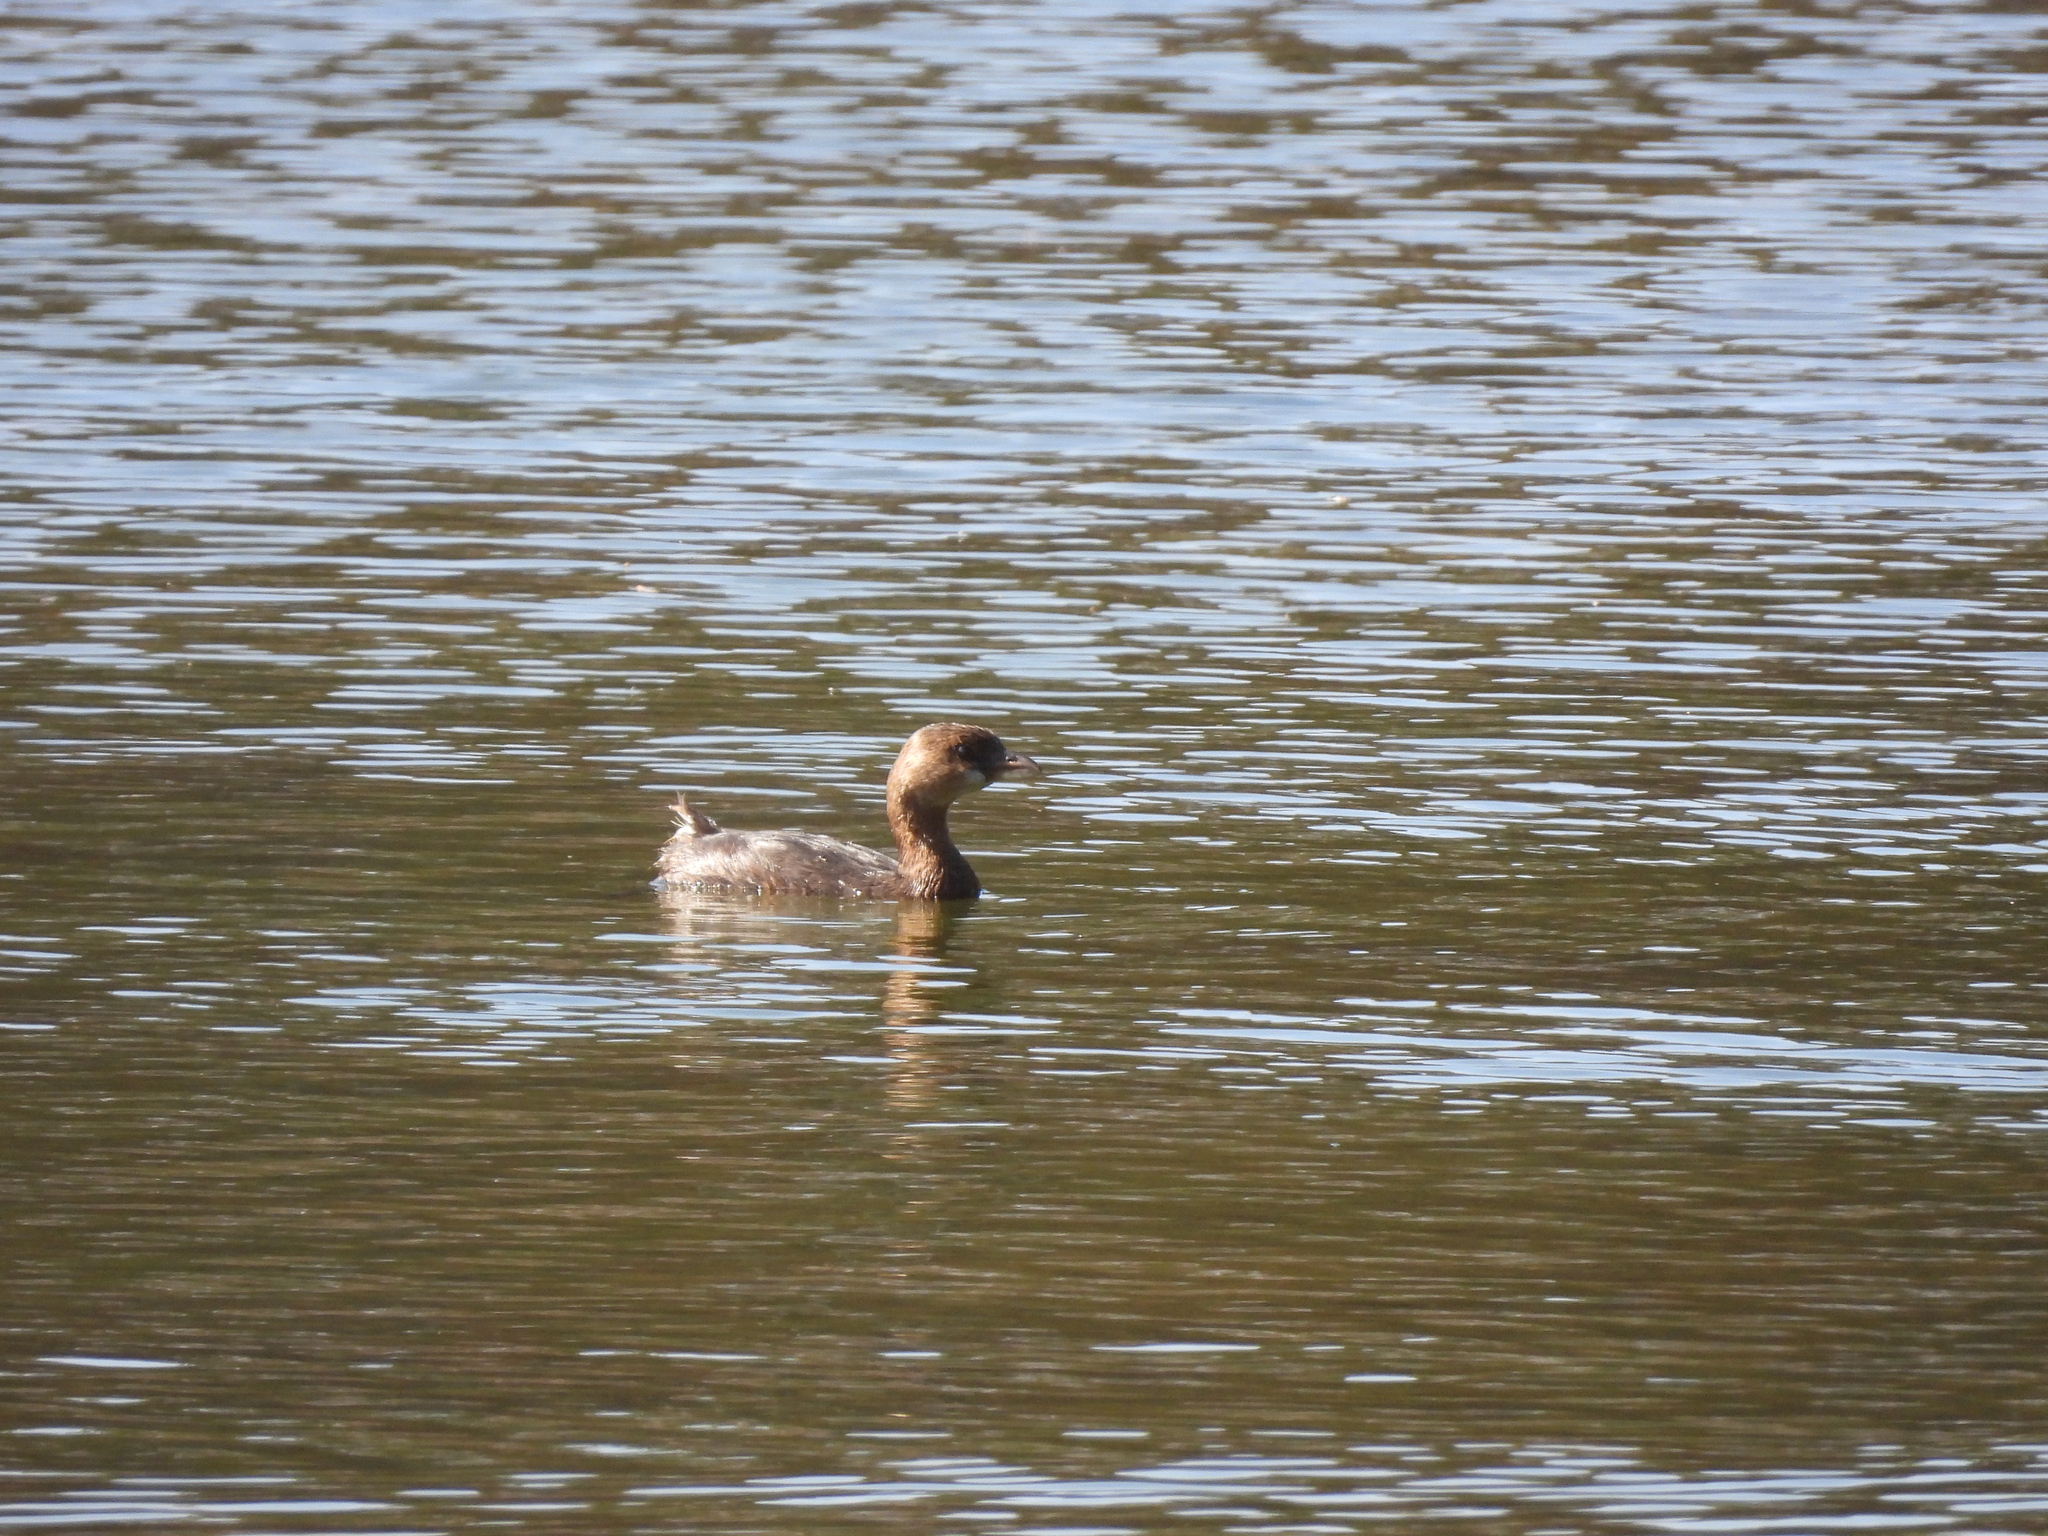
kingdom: Animalia
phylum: Chordata
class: Aves
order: Podicipediformes
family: Podicipedidae
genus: Podilymbus
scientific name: Podilymbus podiceps
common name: Pied-billed grebe
